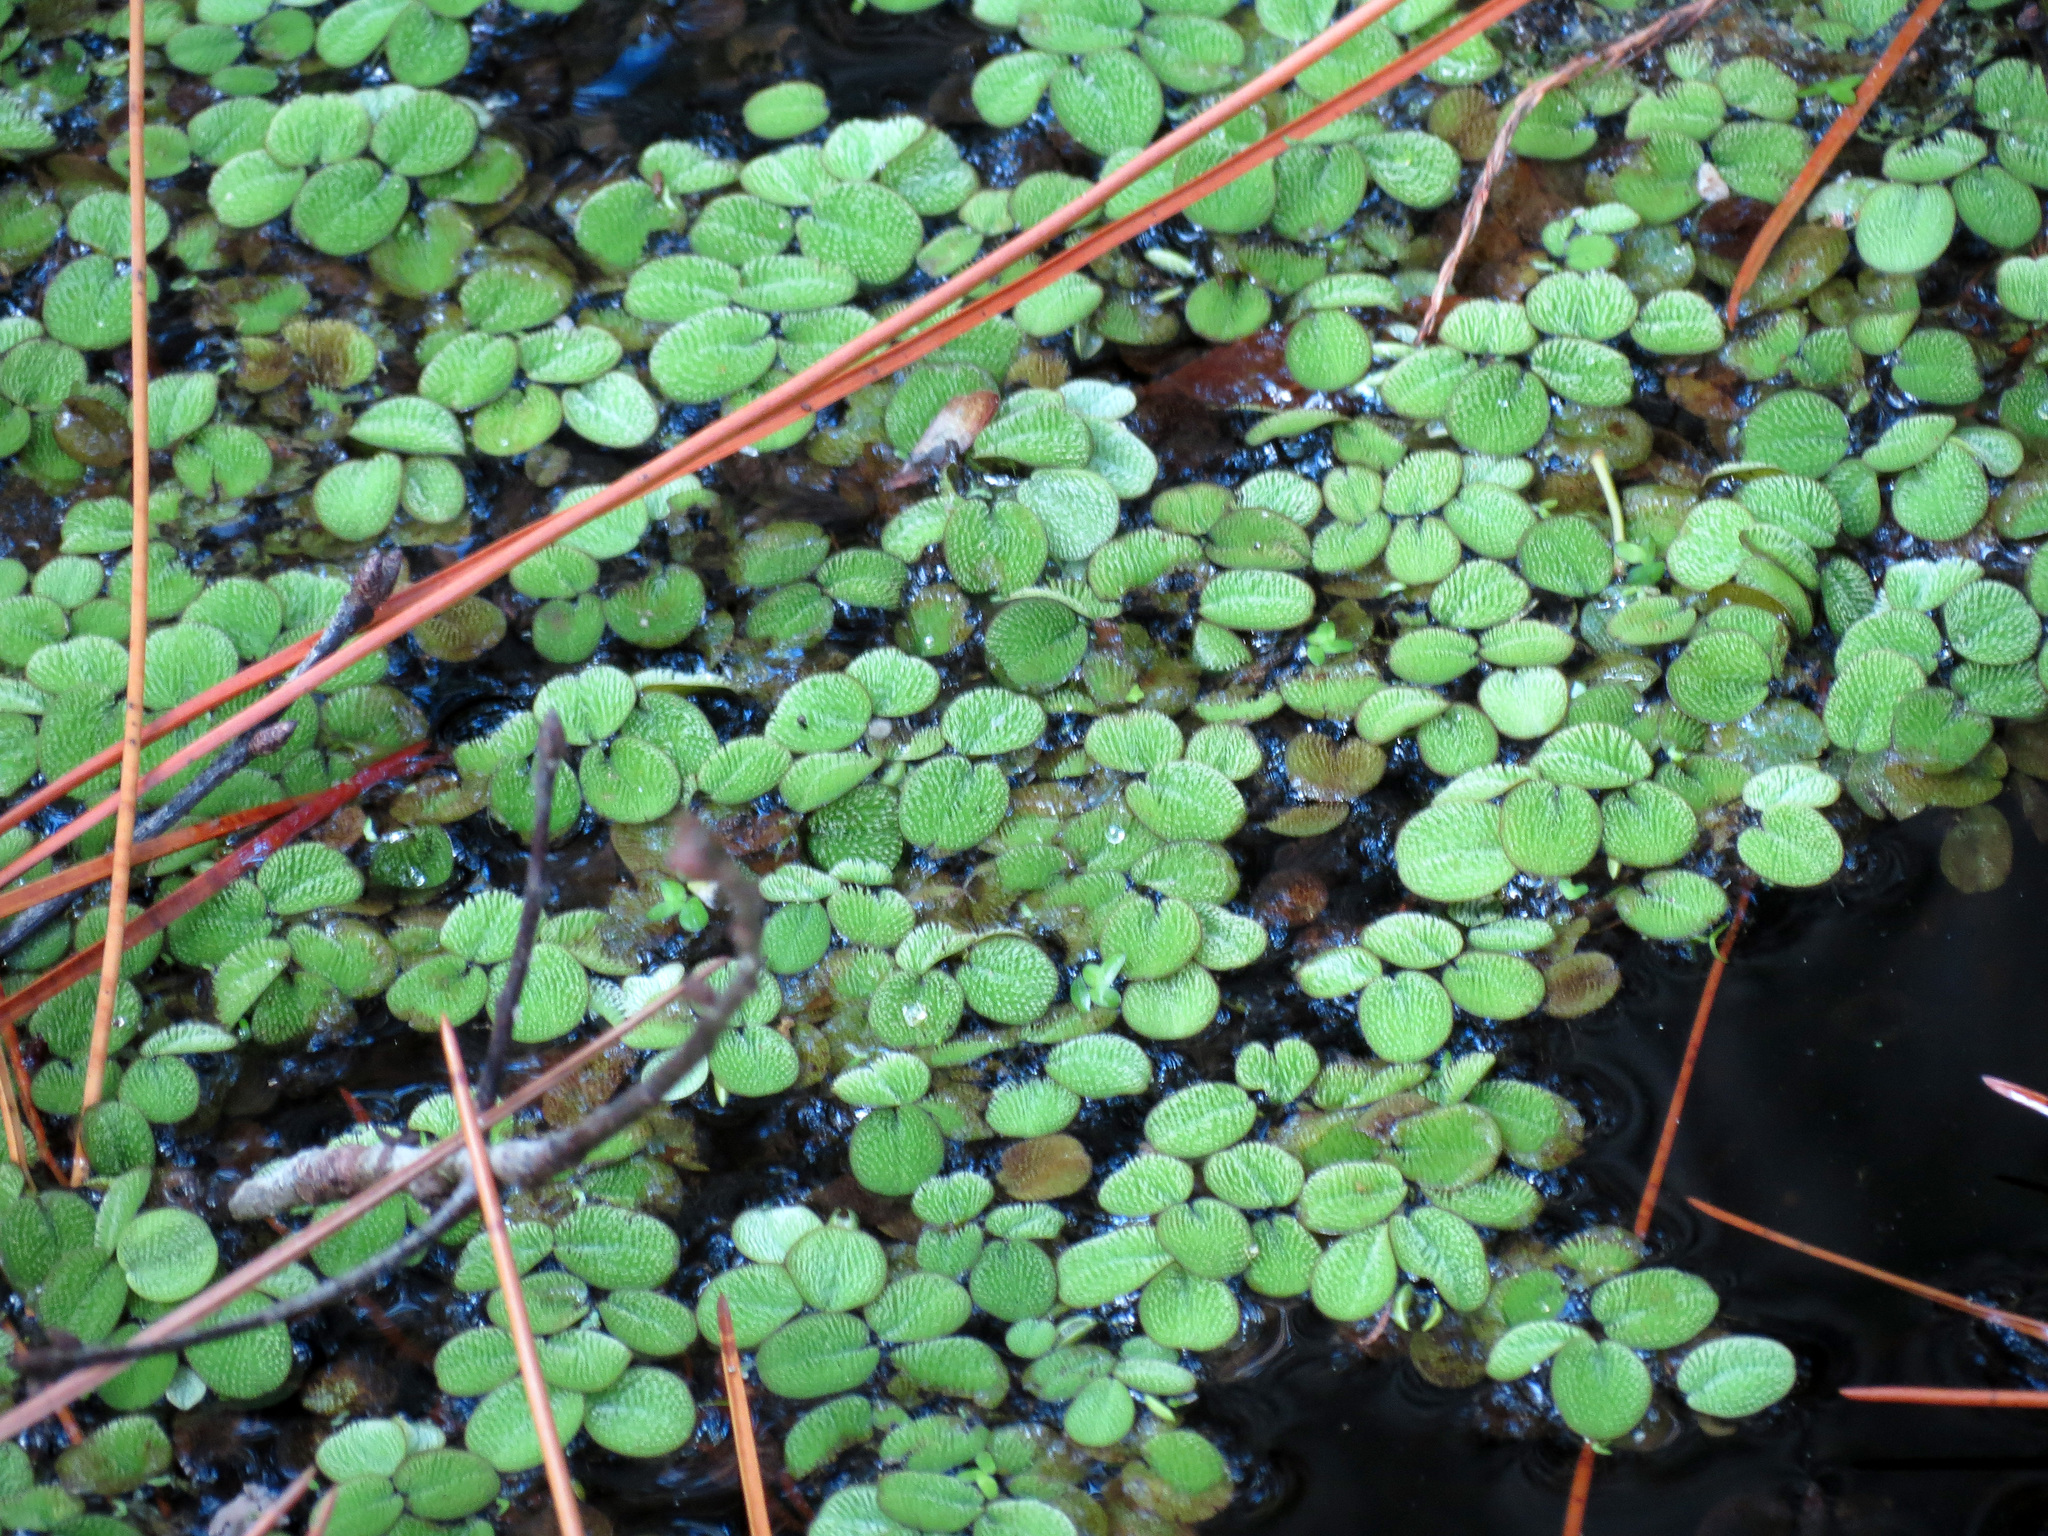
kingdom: Plantae
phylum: Tracheophyta
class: Polypodiopsida
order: Salviniales
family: Salviniaceae
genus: Salvinia
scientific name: Salvinia minima
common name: Water spangles
